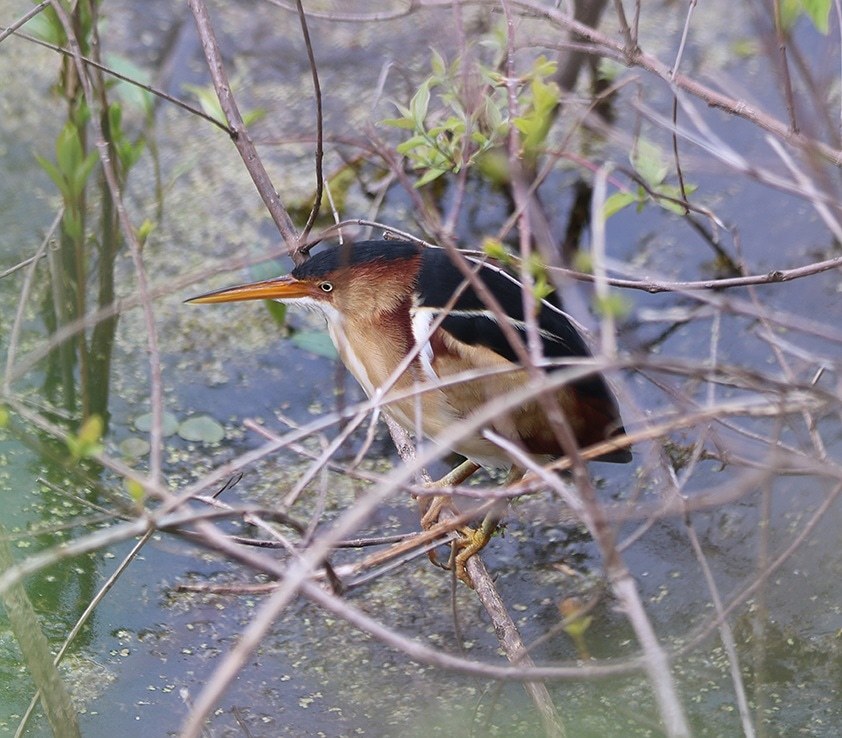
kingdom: Animalia
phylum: Chordata
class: Aves
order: Pelecaniformes
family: Ardeidae
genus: Ixobrychus
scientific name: Ixobrychus exilis
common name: Least bittern
